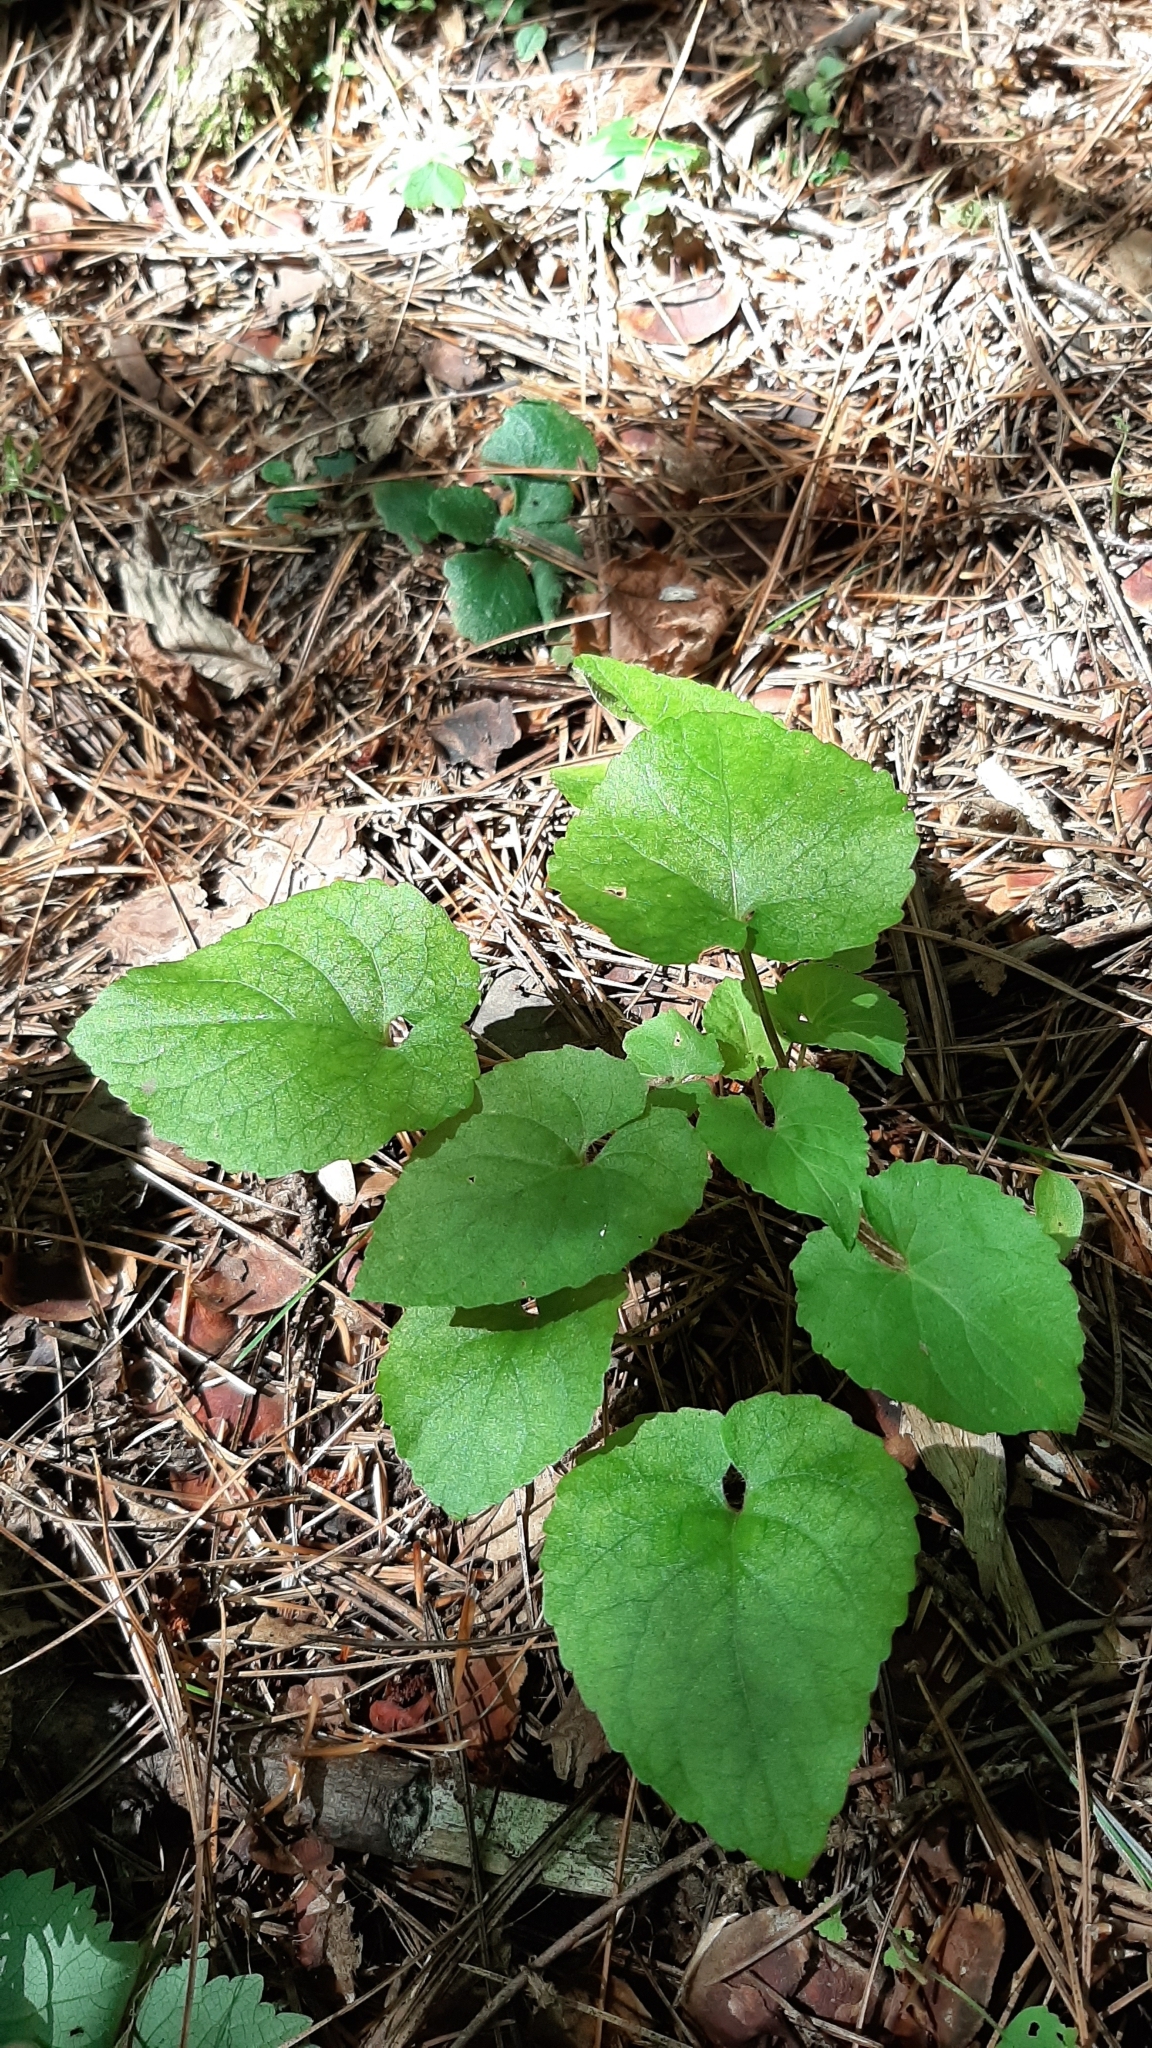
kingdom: Plantae
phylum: Tracheophyta
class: Magnoliopsida
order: Malpighiales
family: Violaceae
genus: Viola
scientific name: Viola selkirkii
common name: Selkirk's violet
